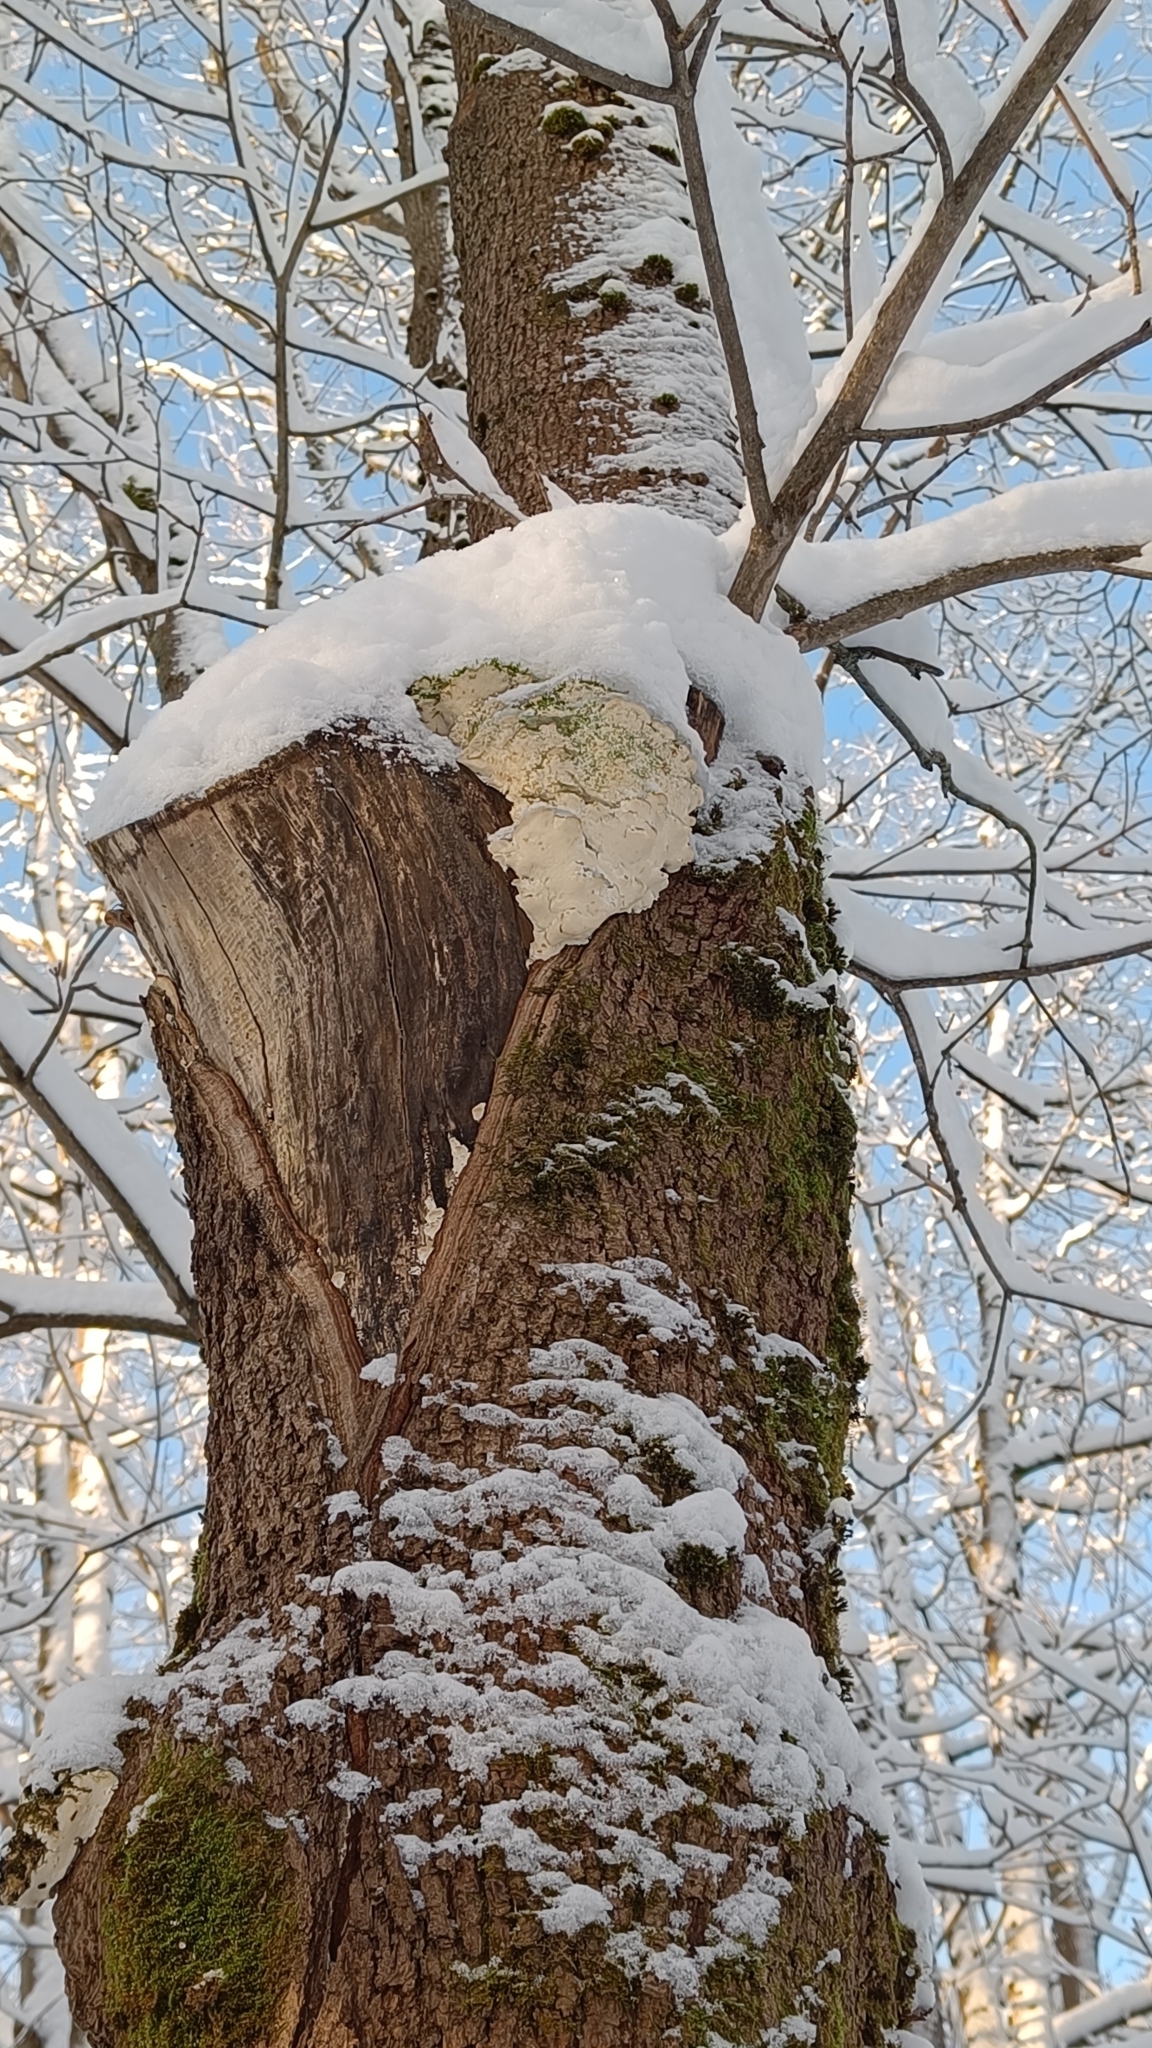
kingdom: Fungi
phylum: Basidiomycota
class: Agaricomycetes
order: Hymenochaetales
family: Oxyporaceae
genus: Oxyporus
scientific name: Oxyporus populinus
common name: Poplar bracket
